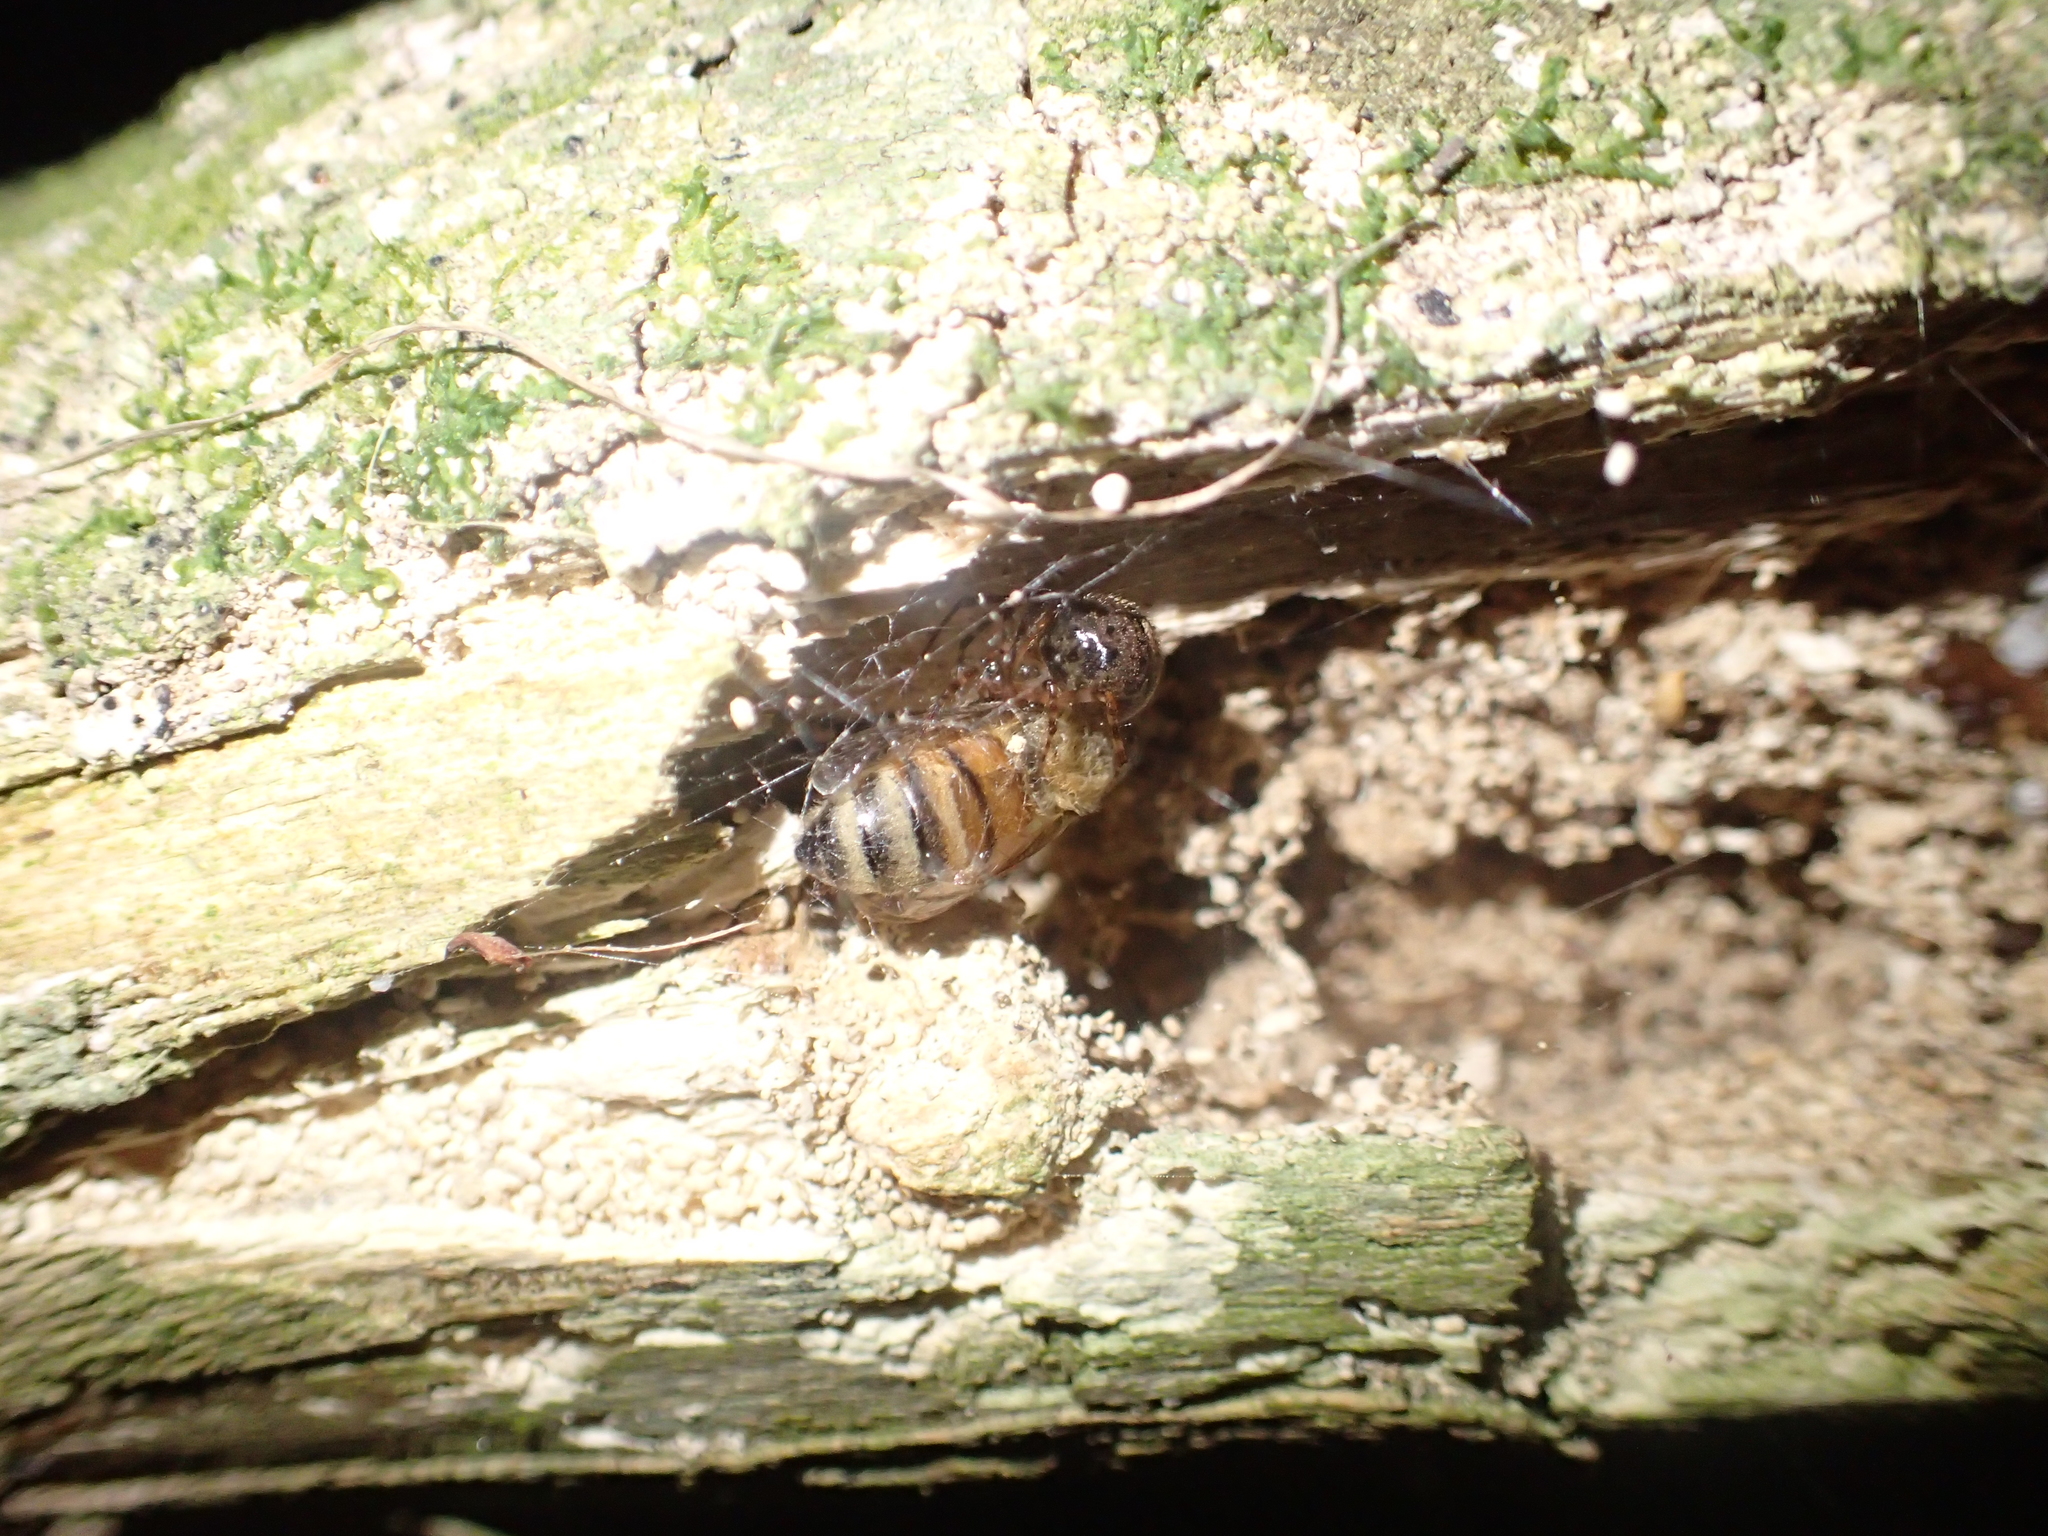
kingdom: Animalia
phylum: Arthropoda
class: Insecta
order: Hymenoptera
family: Apidae
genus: Apis
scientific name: Apis mellifera
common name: Honey bee
